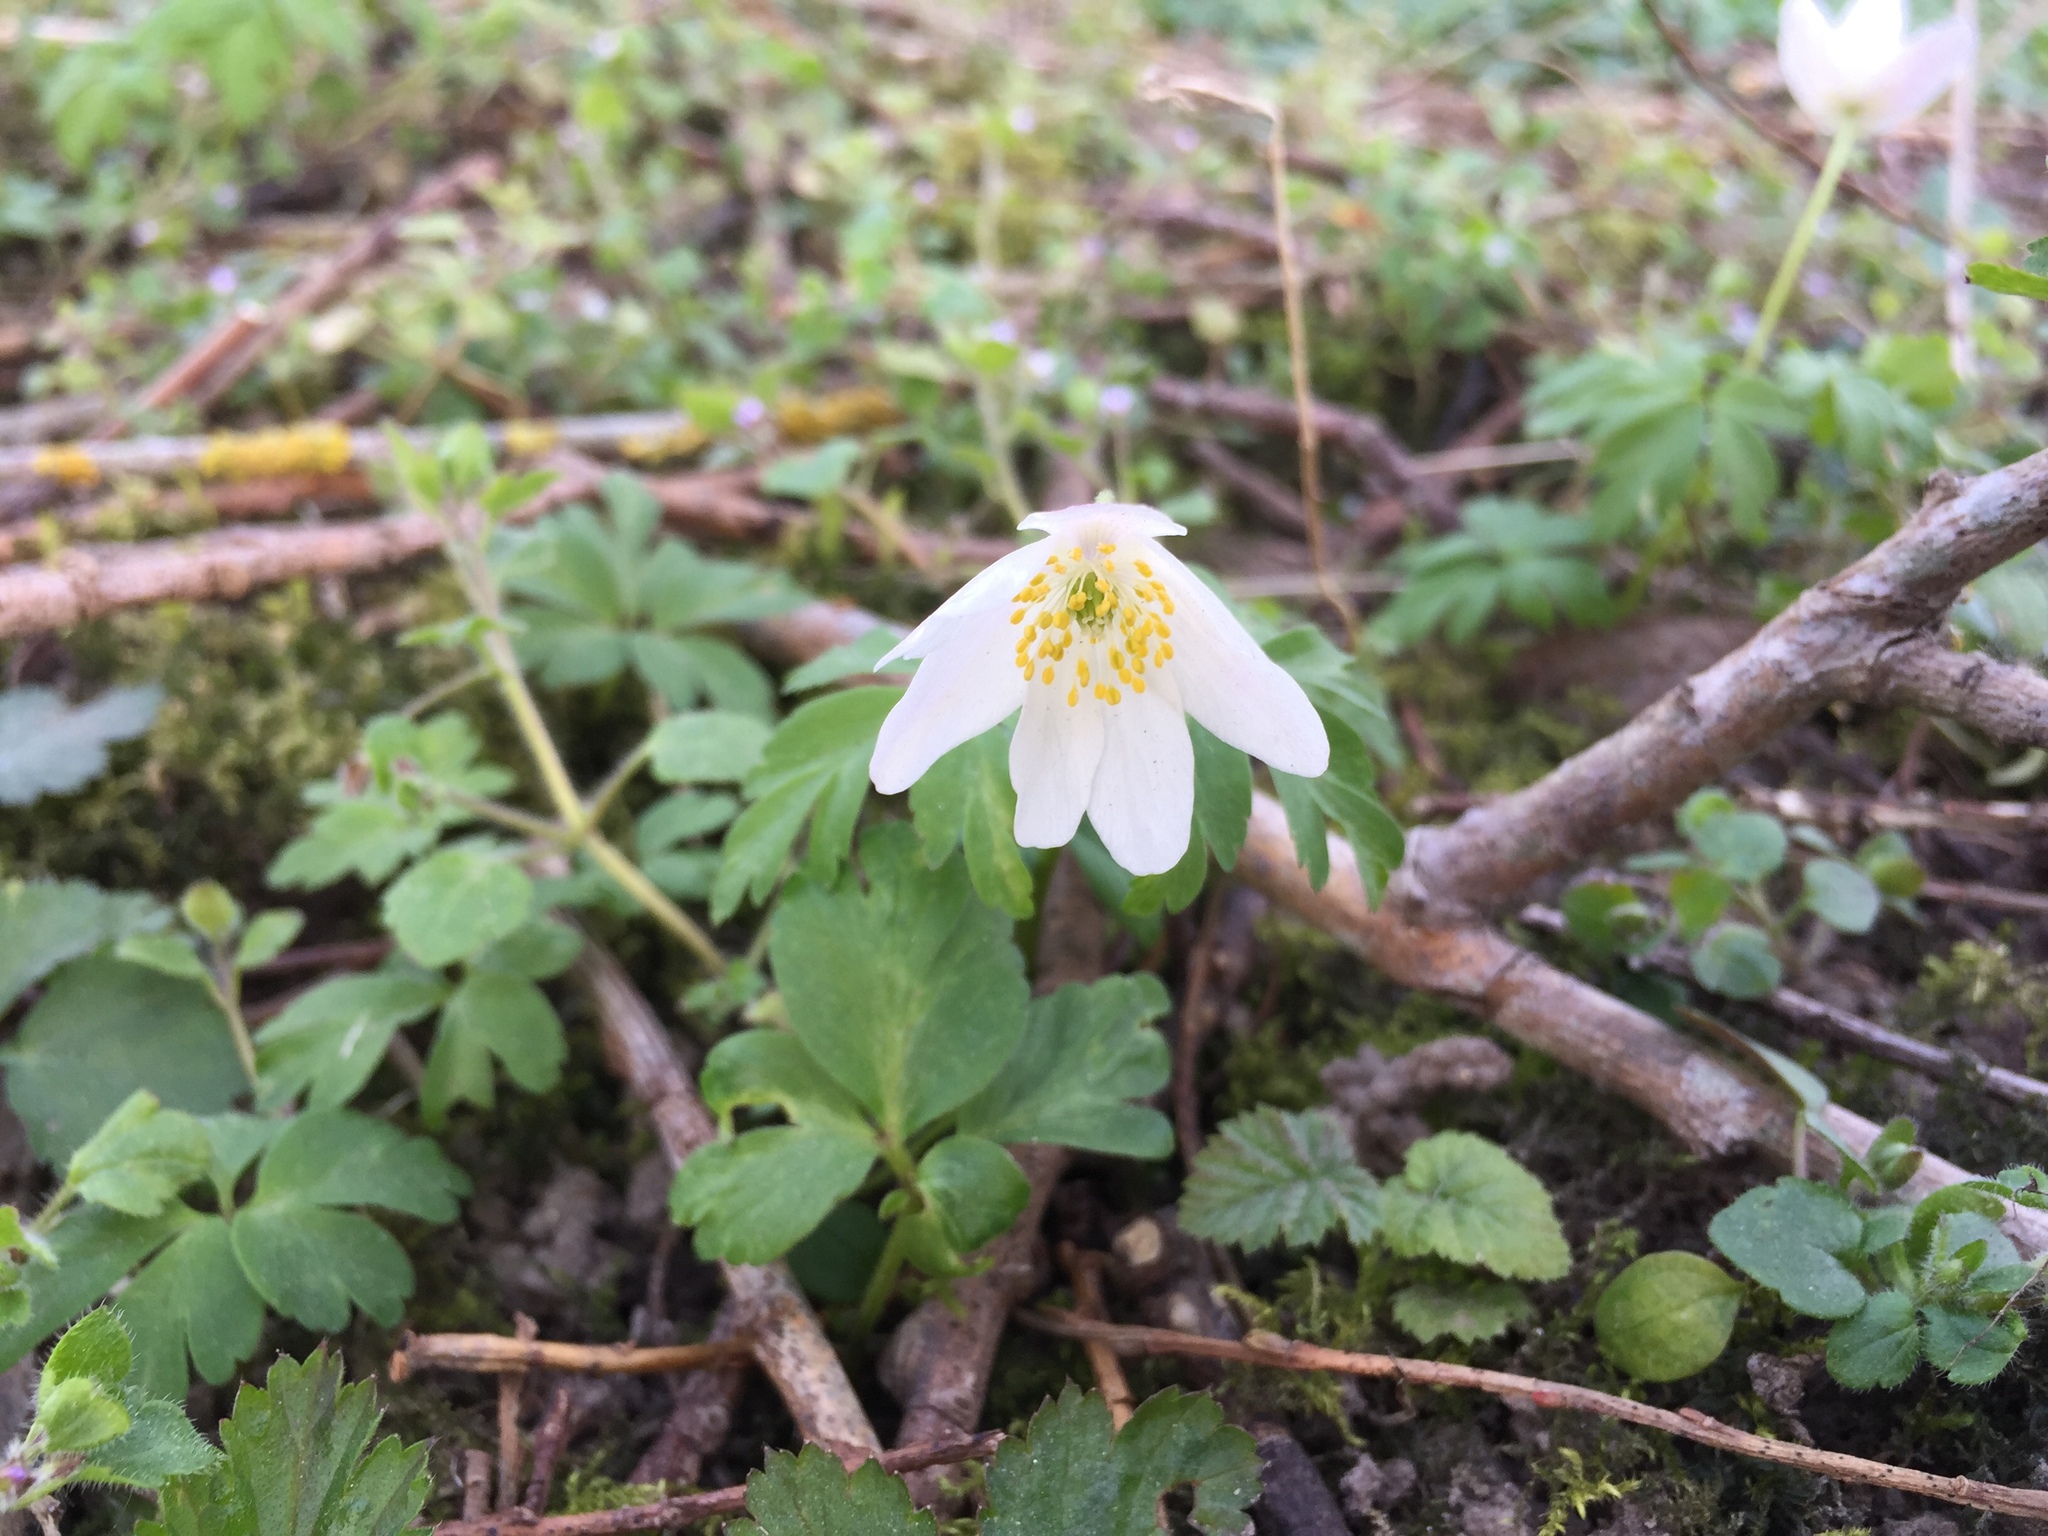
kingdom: Plantae
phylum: Tracheophyta
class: Magnoliopsida
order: Ranunculales
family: Ranunculaceae
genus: Anemone
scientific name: Anemone nemorosa
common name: Wood anemone
